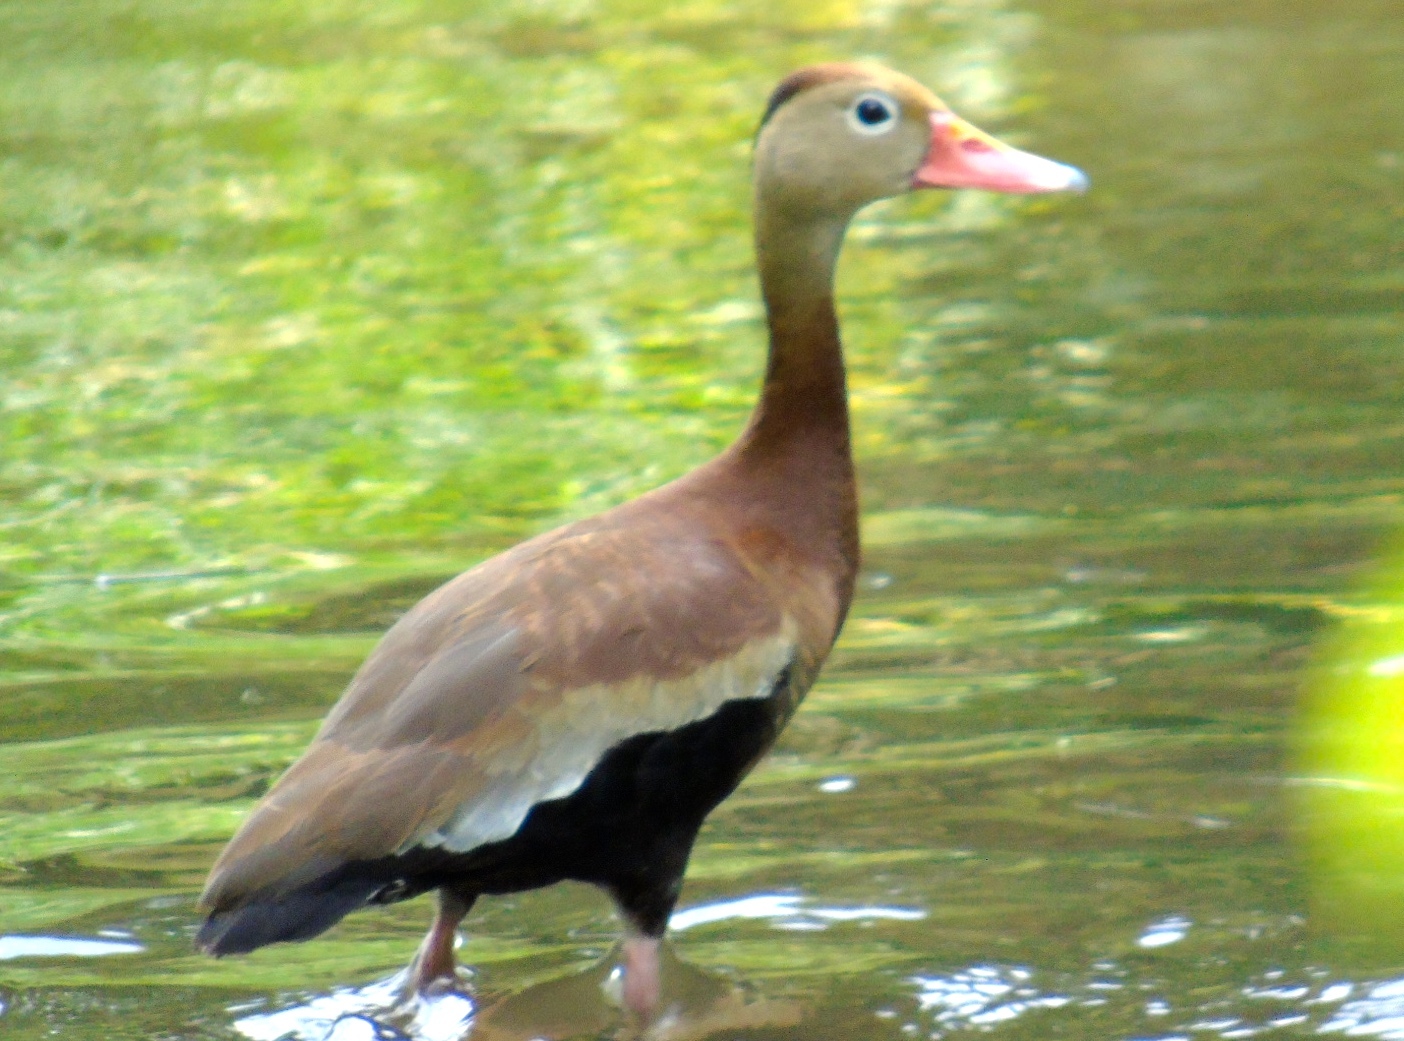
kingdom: Animalia
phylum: Chordata
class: Aves
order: Anseriformes
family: Anatidae
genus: Dendrocygna
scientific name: Dendrocygna autumnalis
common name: Black-bellied whistling duck
